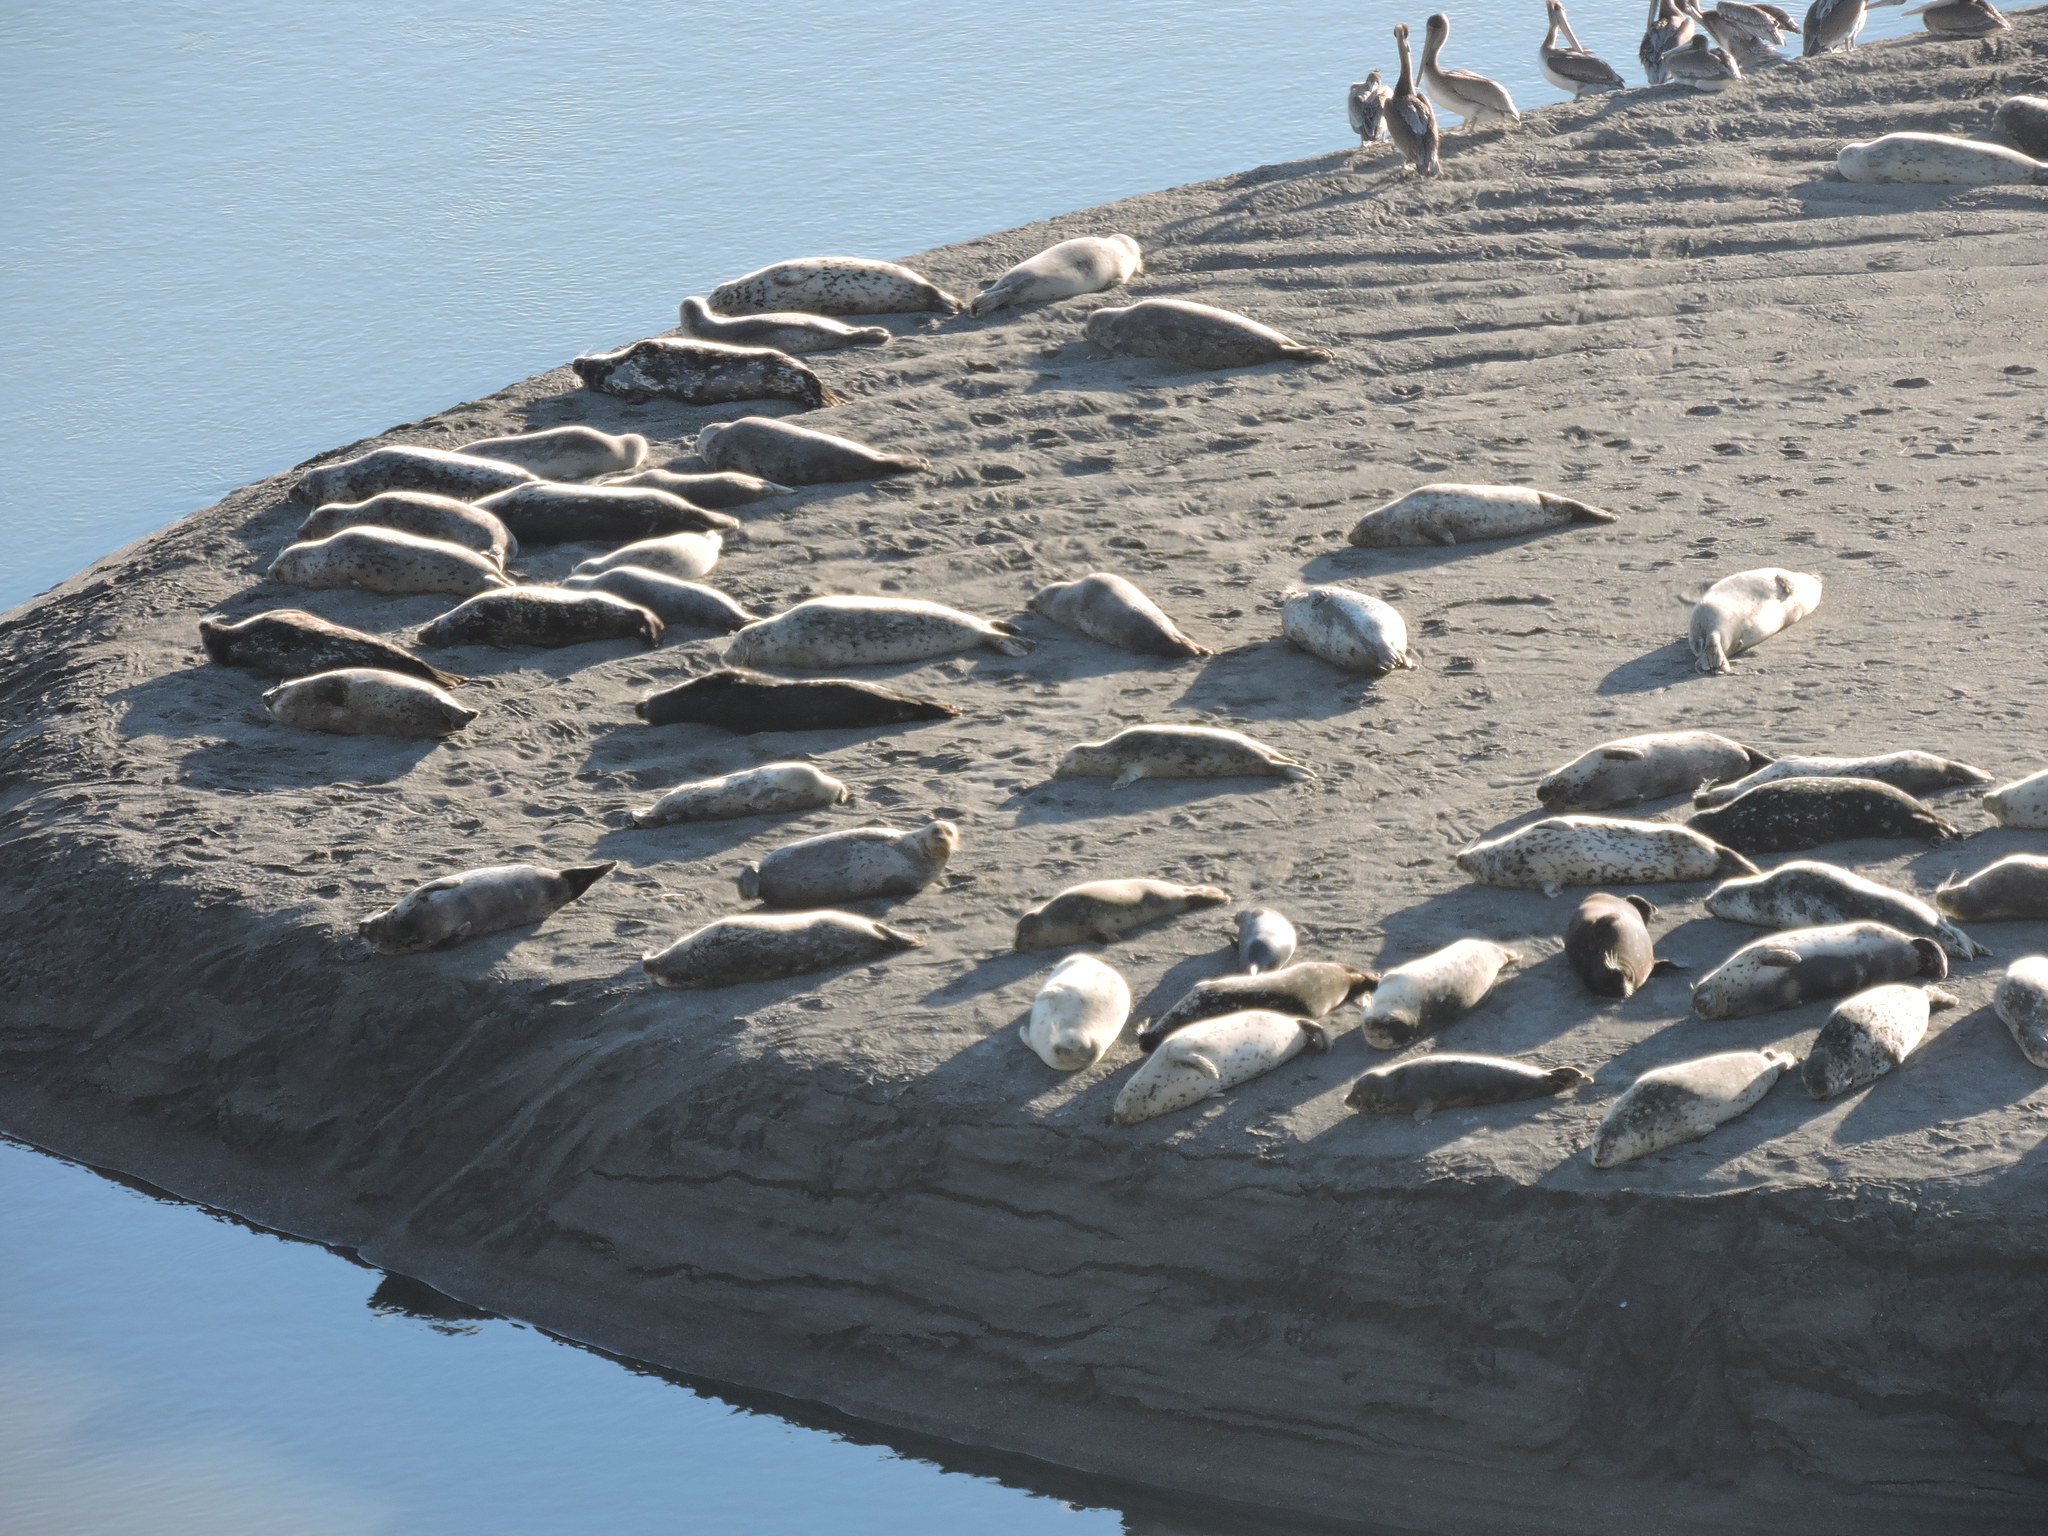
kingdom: Animalia
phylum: Chordata
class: Mammalia
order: Carnivora
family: Phocidae
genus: Phoca
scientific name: Phoca vitulina
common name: Harbor seal
